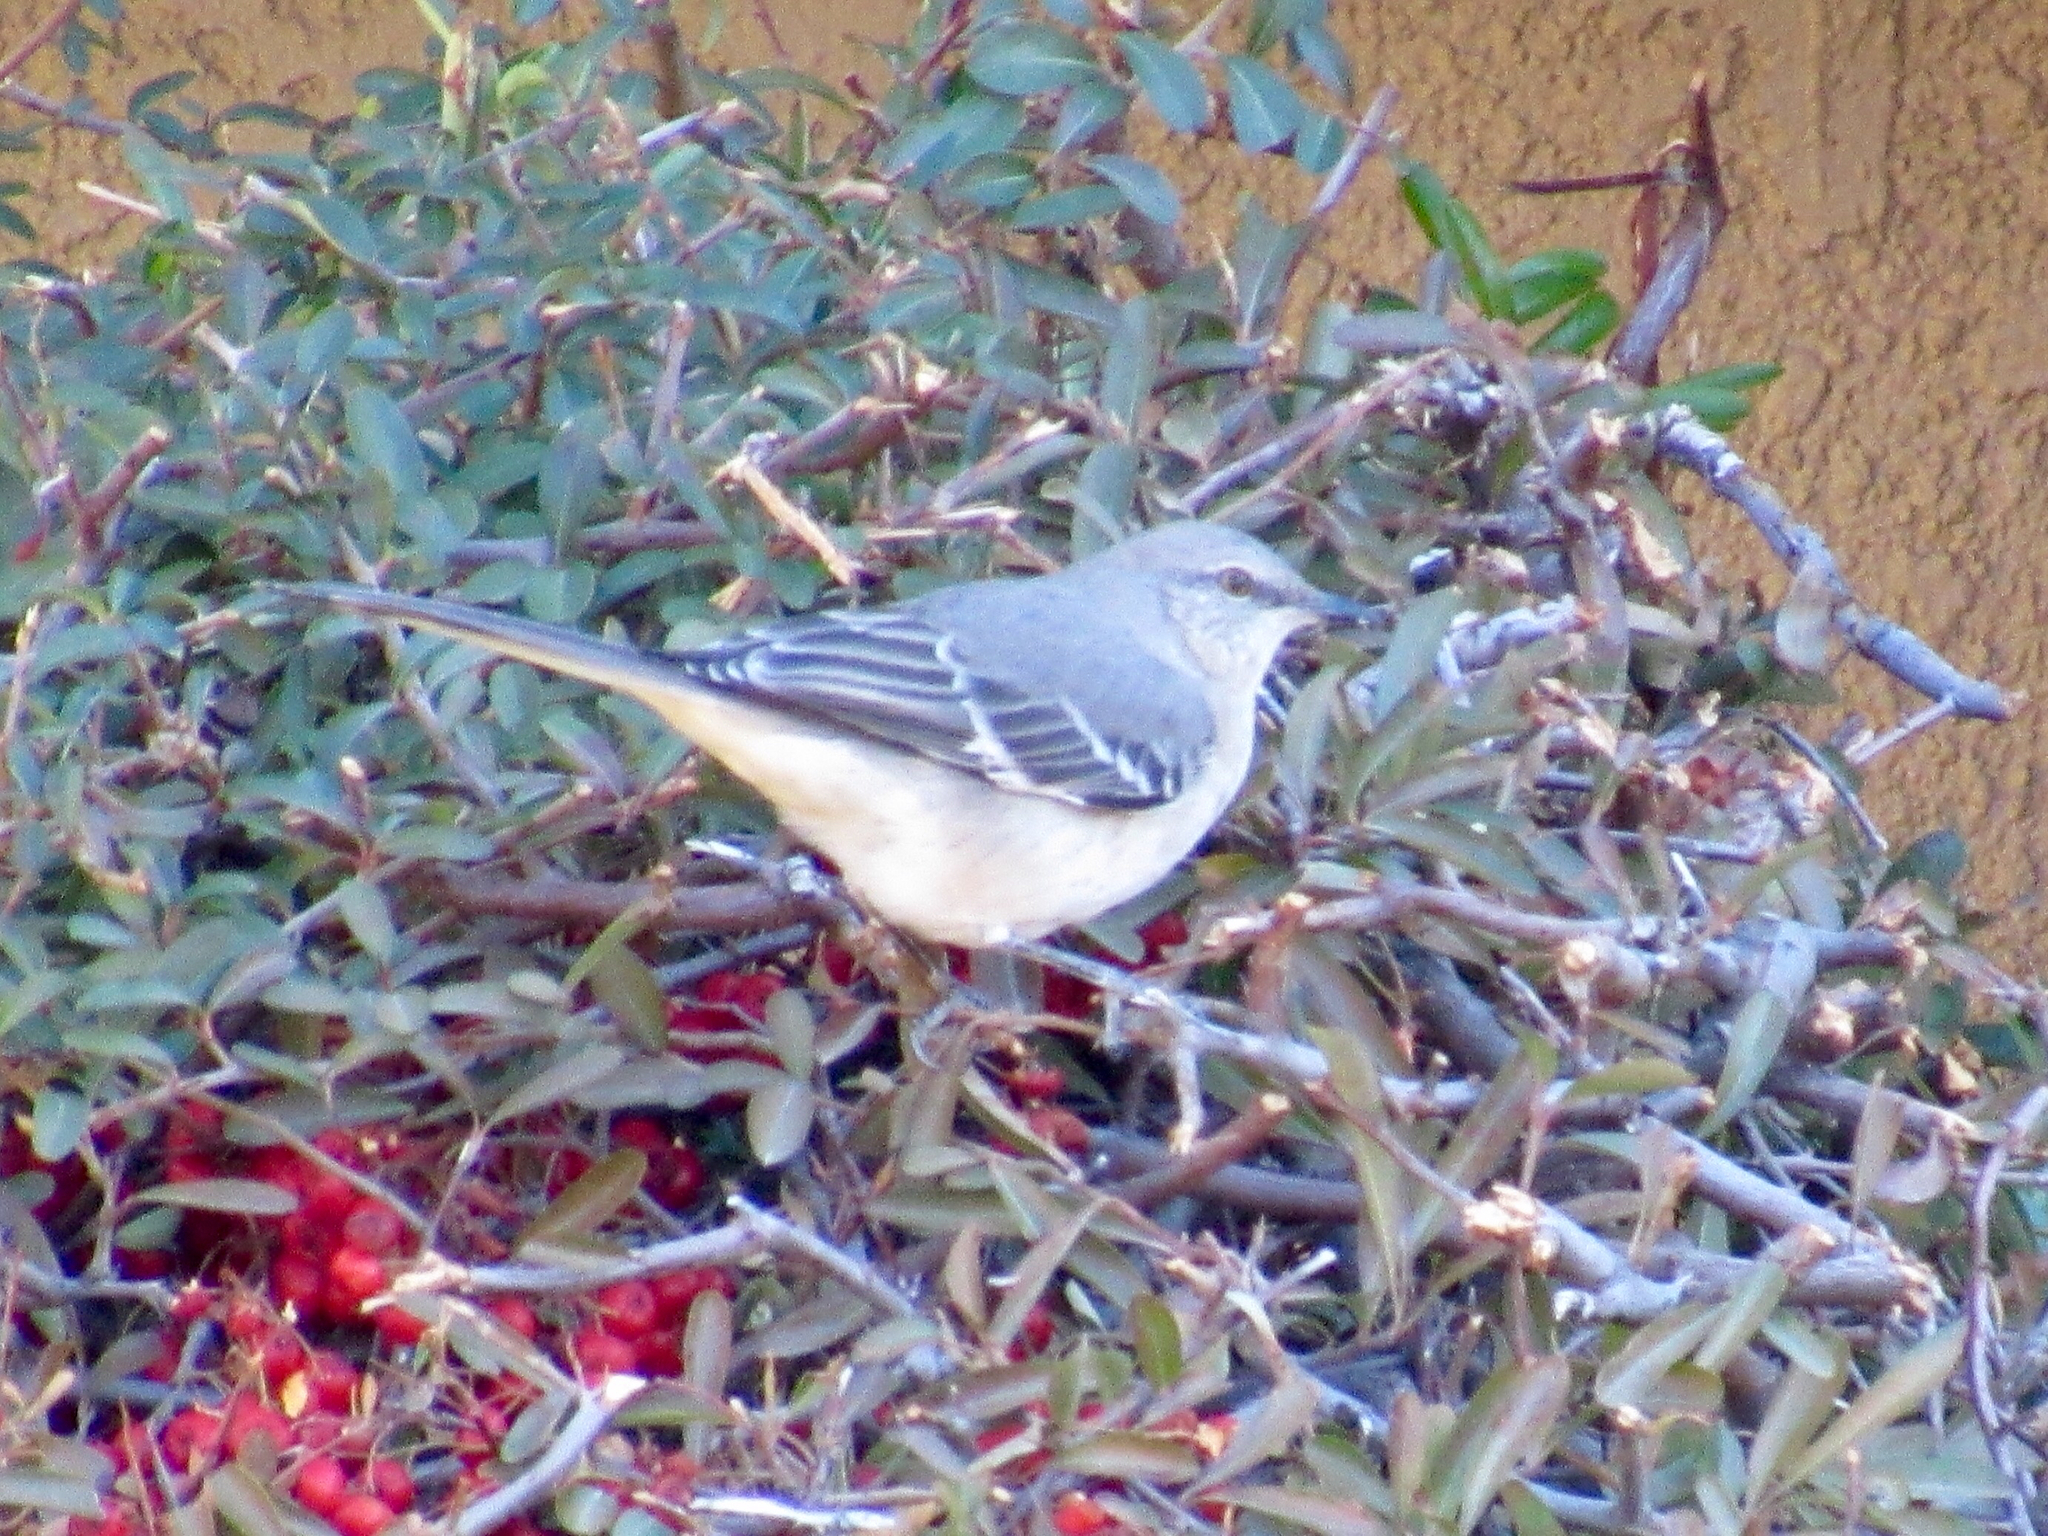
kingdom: Animalia
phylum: Chordata
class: Aves
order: Passeriformes
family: Mimidae
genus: Mimus
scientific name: Mimus polyglottos
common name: Northern mockingbird
